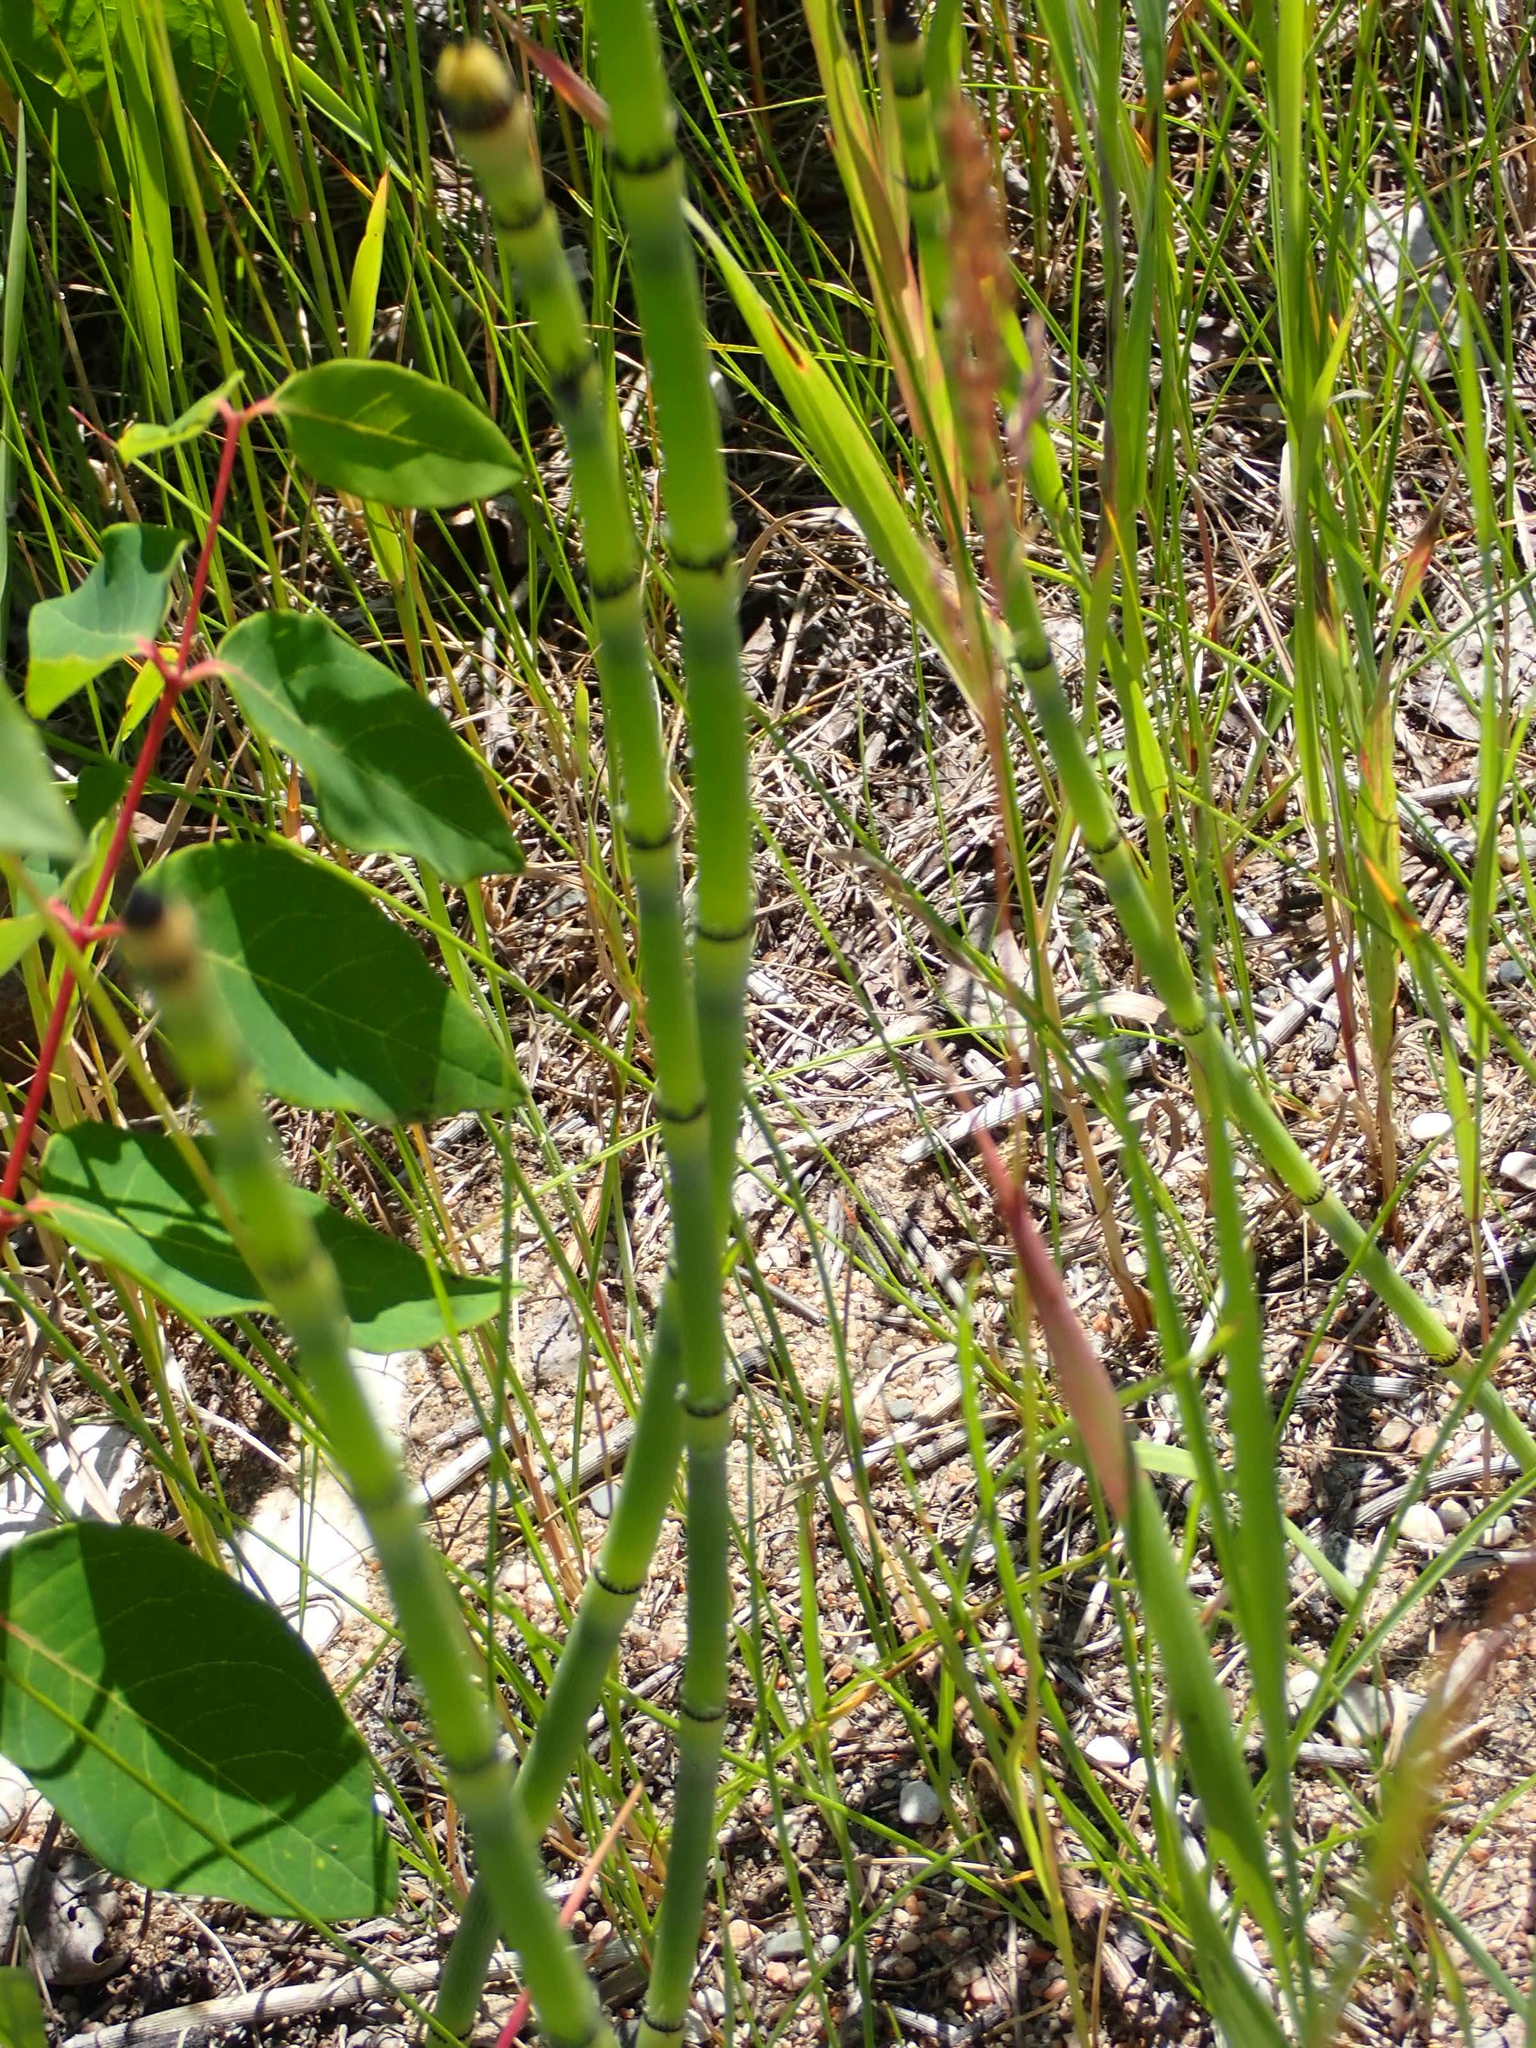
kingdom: Plantae
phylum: Tracheophyta
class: Polypodiopsida
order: Equisetales
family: Equisetaceae
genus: Equisetum
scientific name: Equisetum hyemale
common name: Rough horsetail
